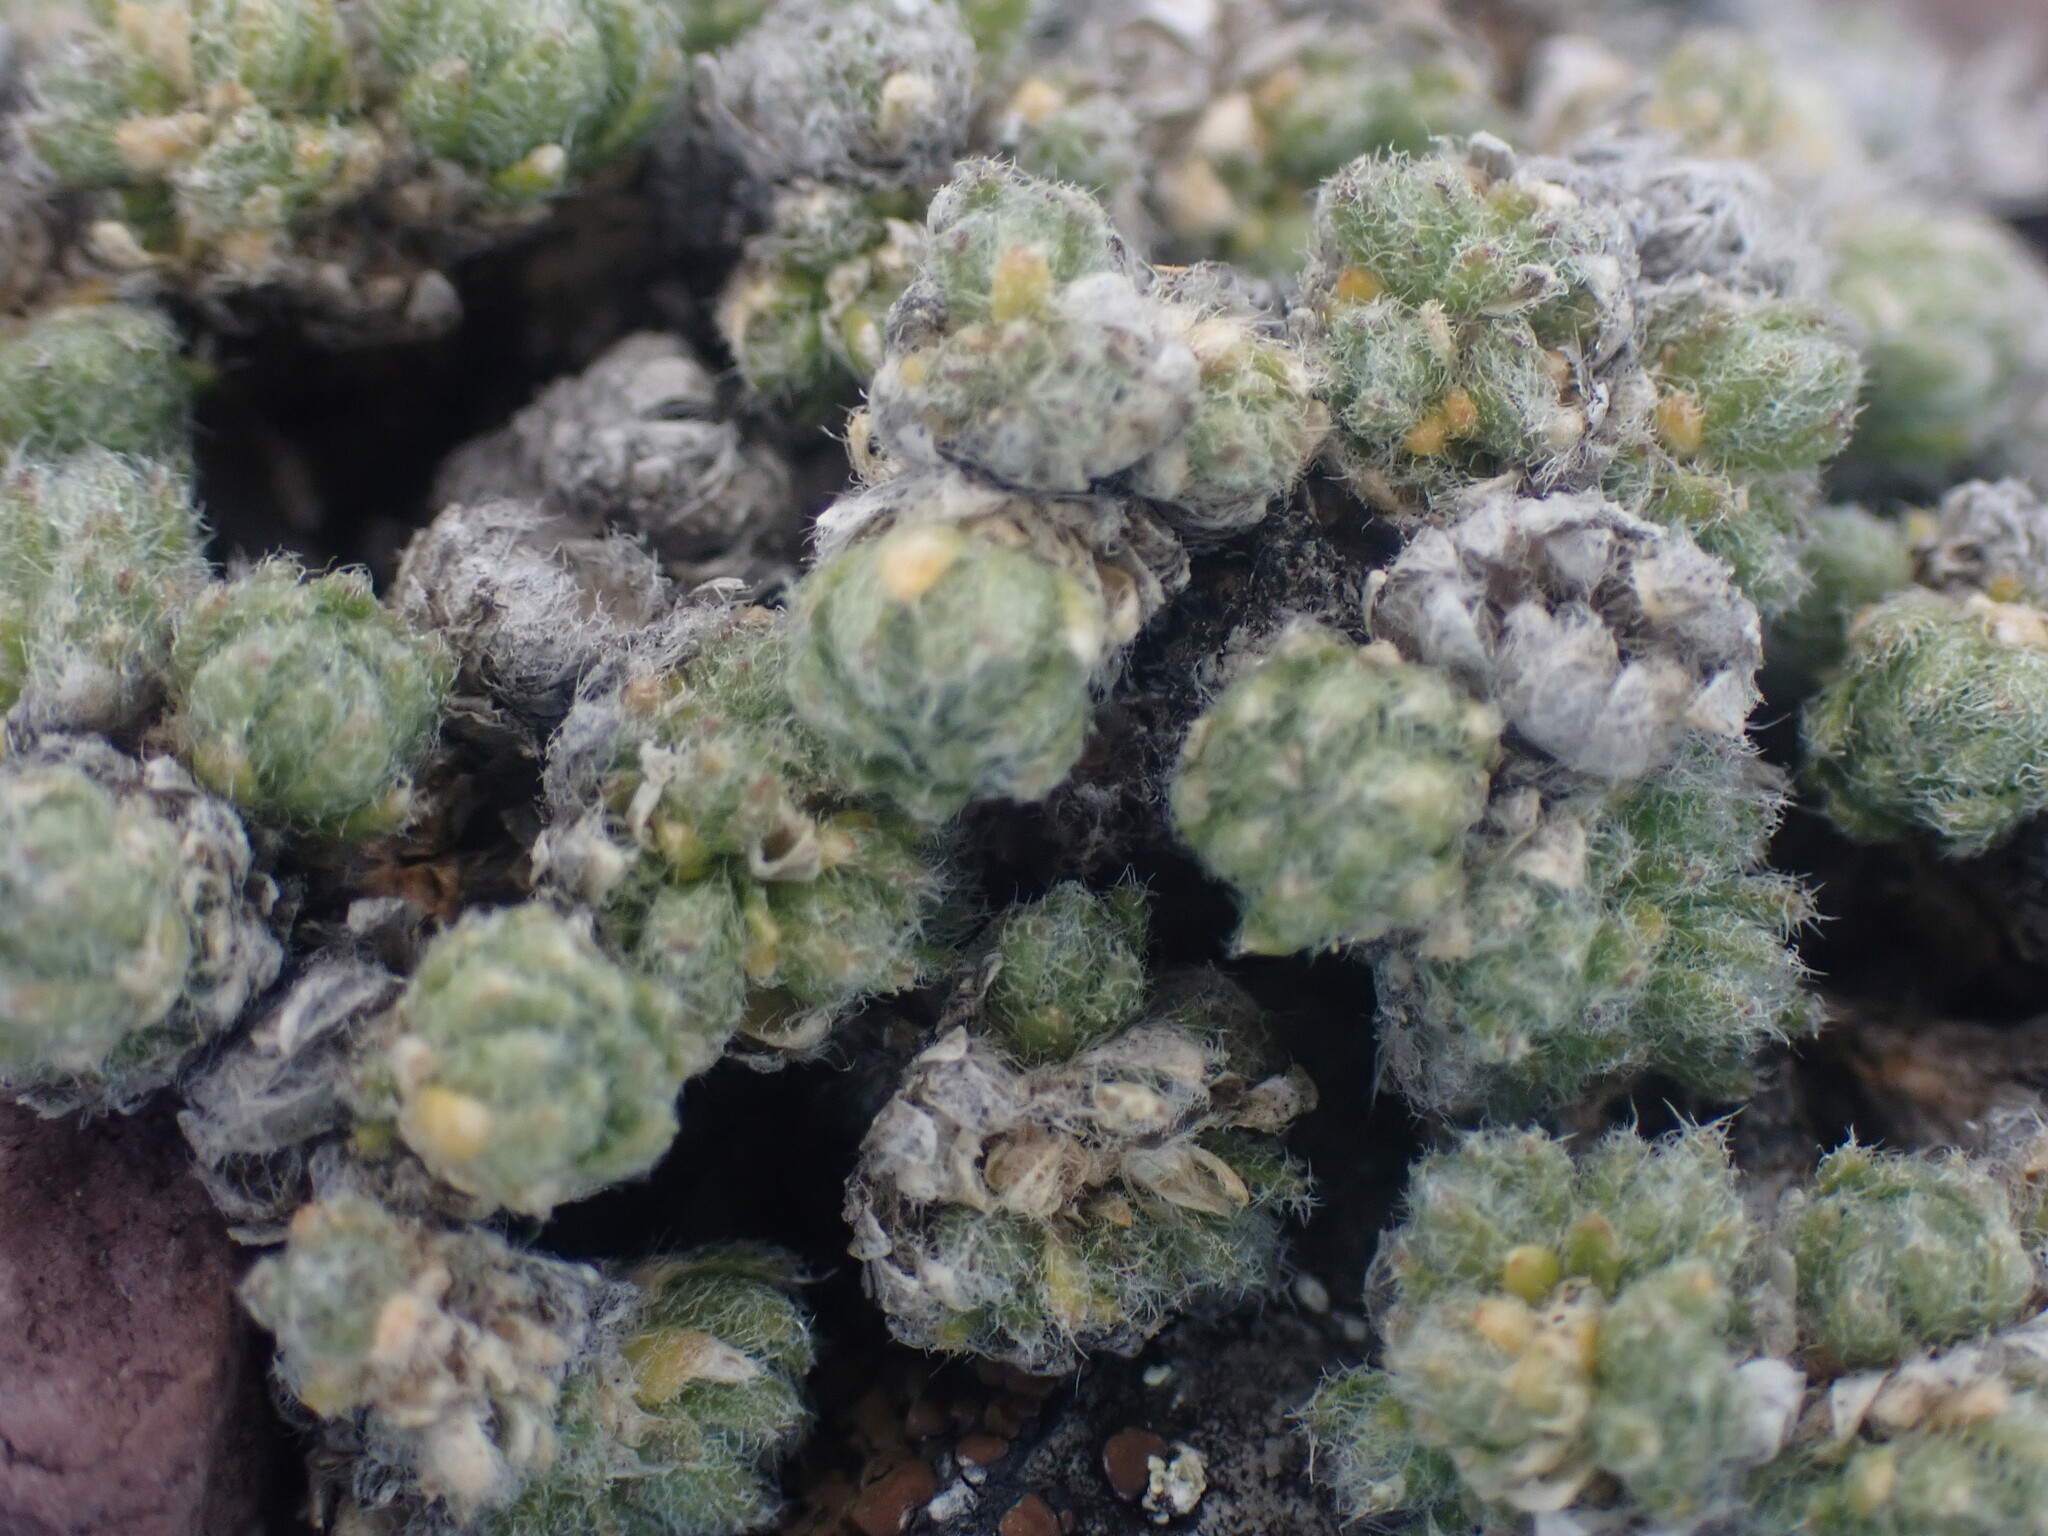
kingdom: Plantae
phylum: Tracheophyta
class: Magnoliopsida
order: Brassicales
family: Brassicaceae
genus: Draba
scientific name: Draba oligosperma
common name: Few-seed draba
